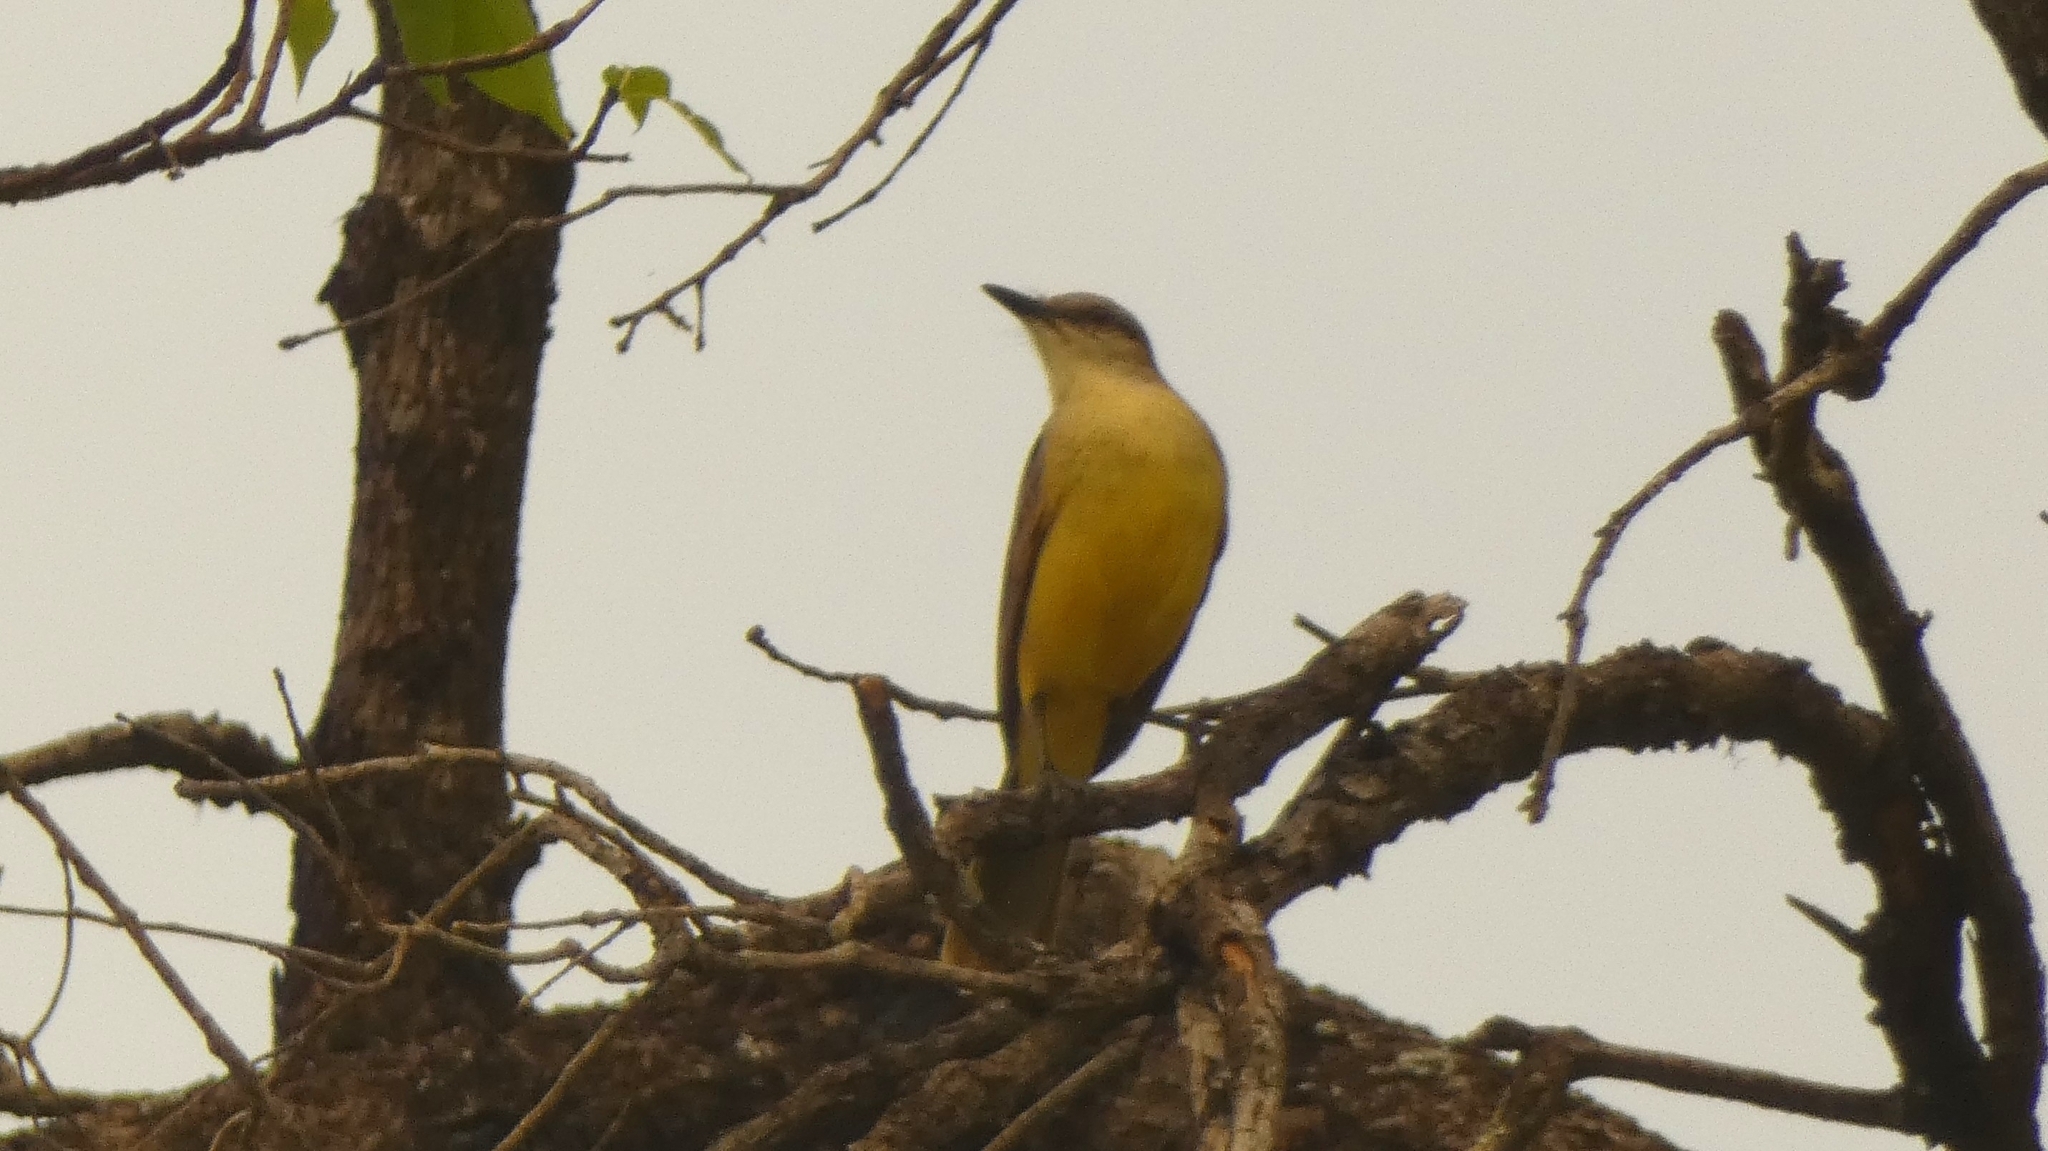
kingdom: Animalia
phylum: Chordata
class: Aves
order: Passeriformes
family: Tyrannidae
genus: Machetornis
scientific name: Machetornis rixosa
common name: Cattle tyrant
